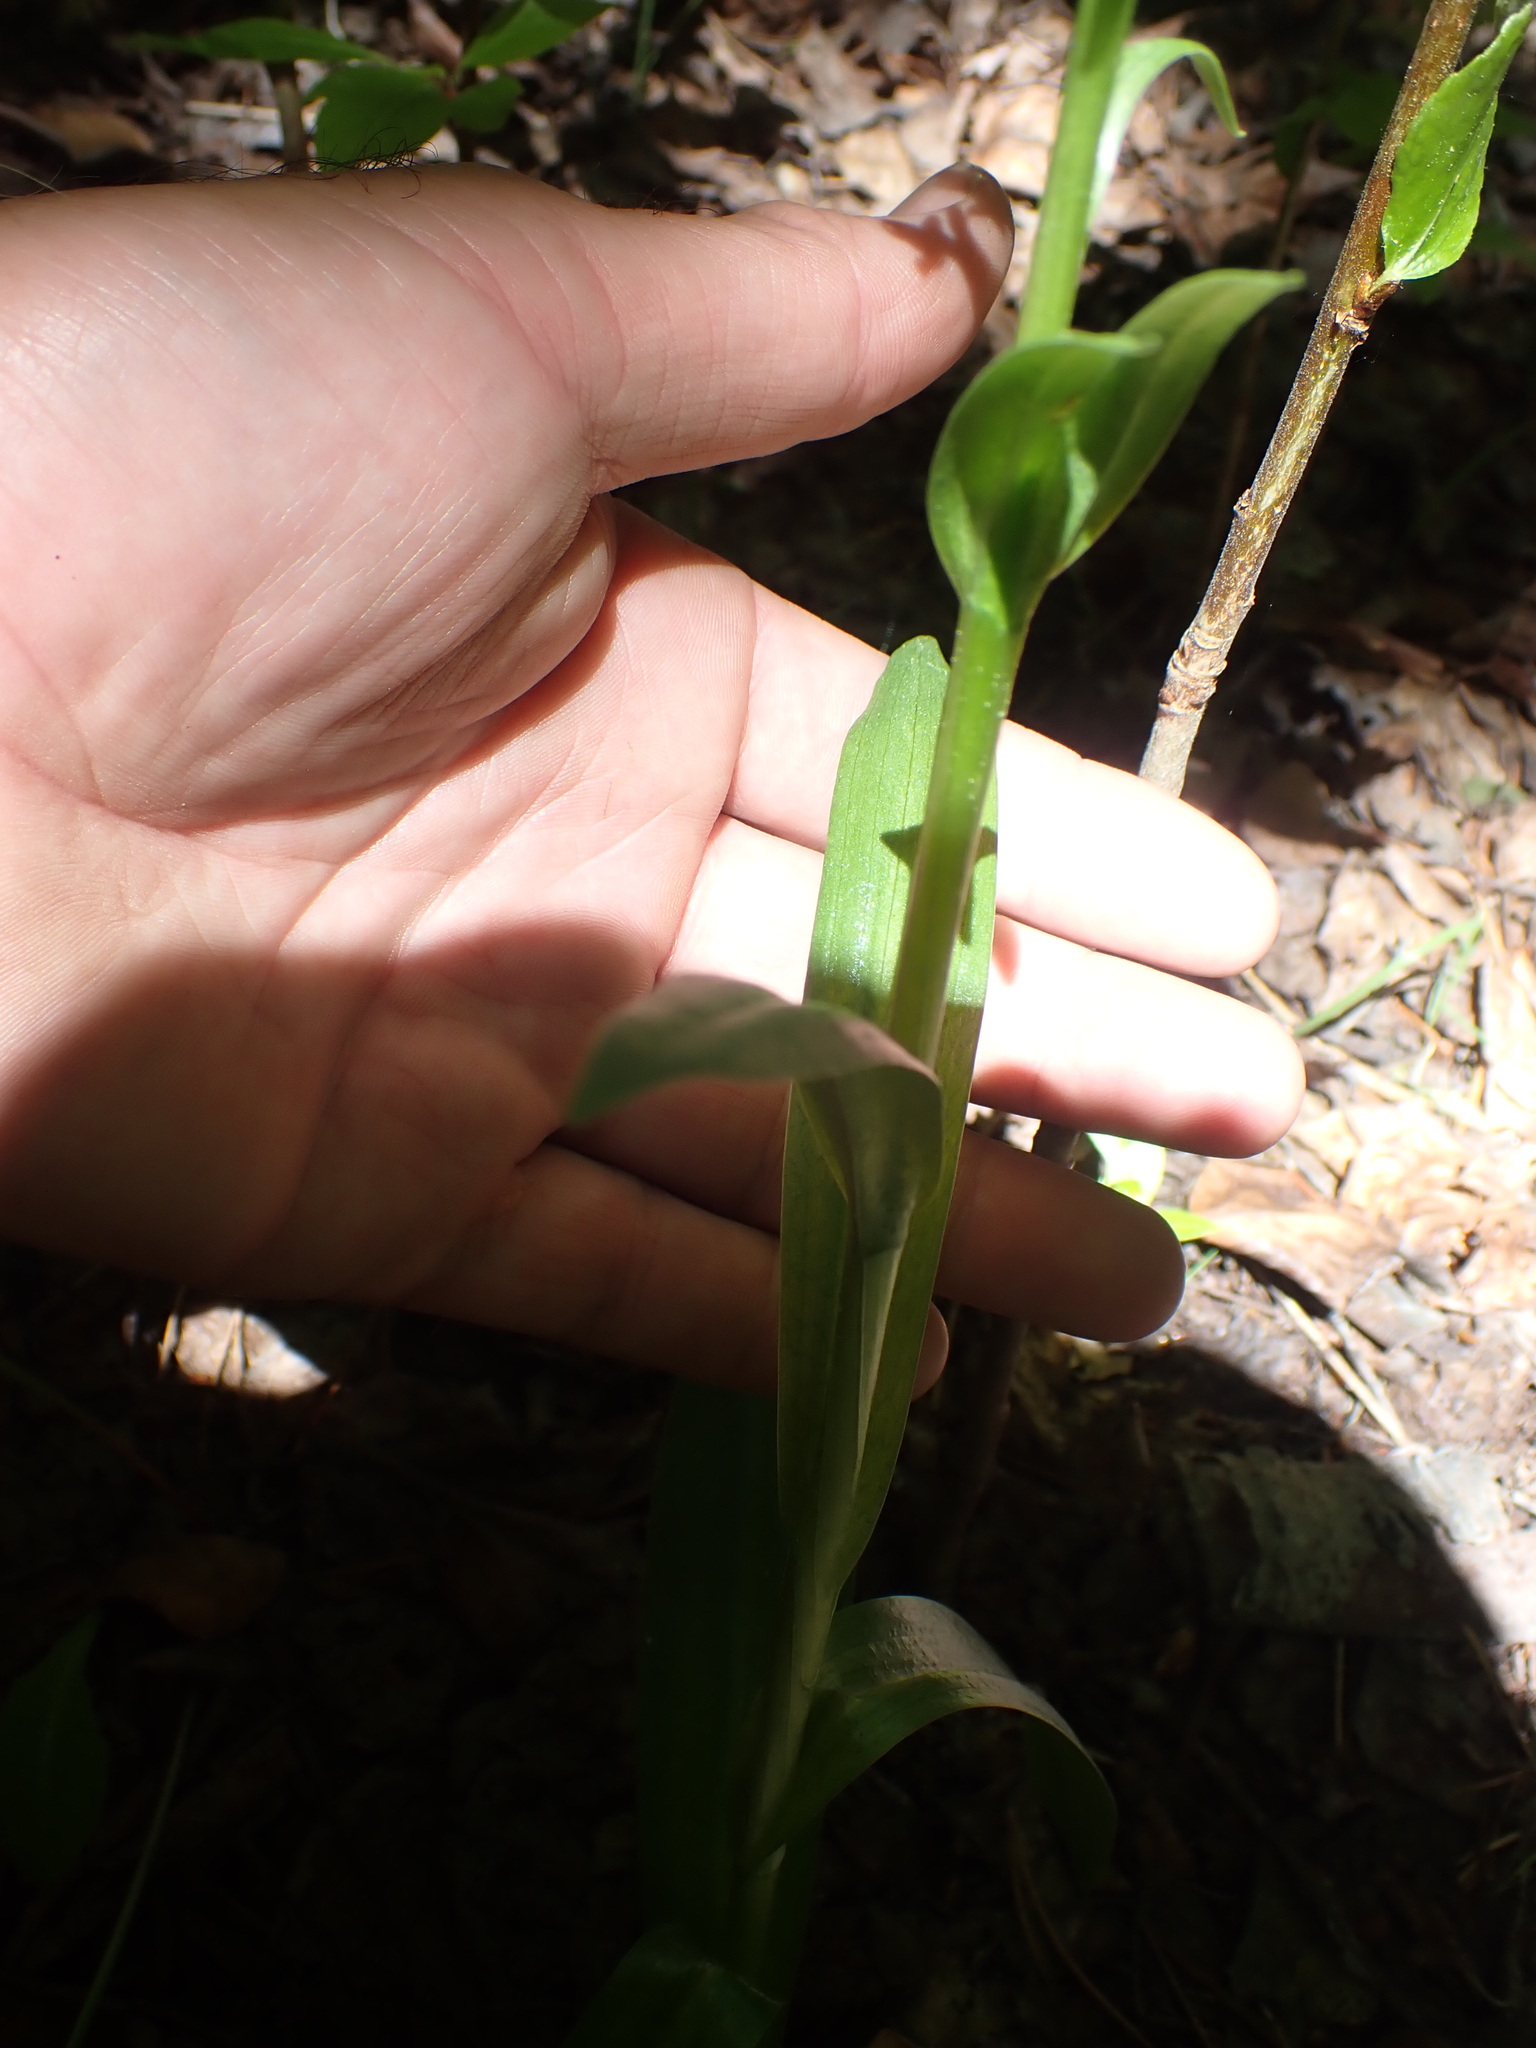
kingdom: Plantae
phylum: Tracheophyta
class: Liliopsida
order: Asparagales
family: Orchidaceae
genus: Platanthera
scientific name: Platanthera dilatata
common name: Bog candles
